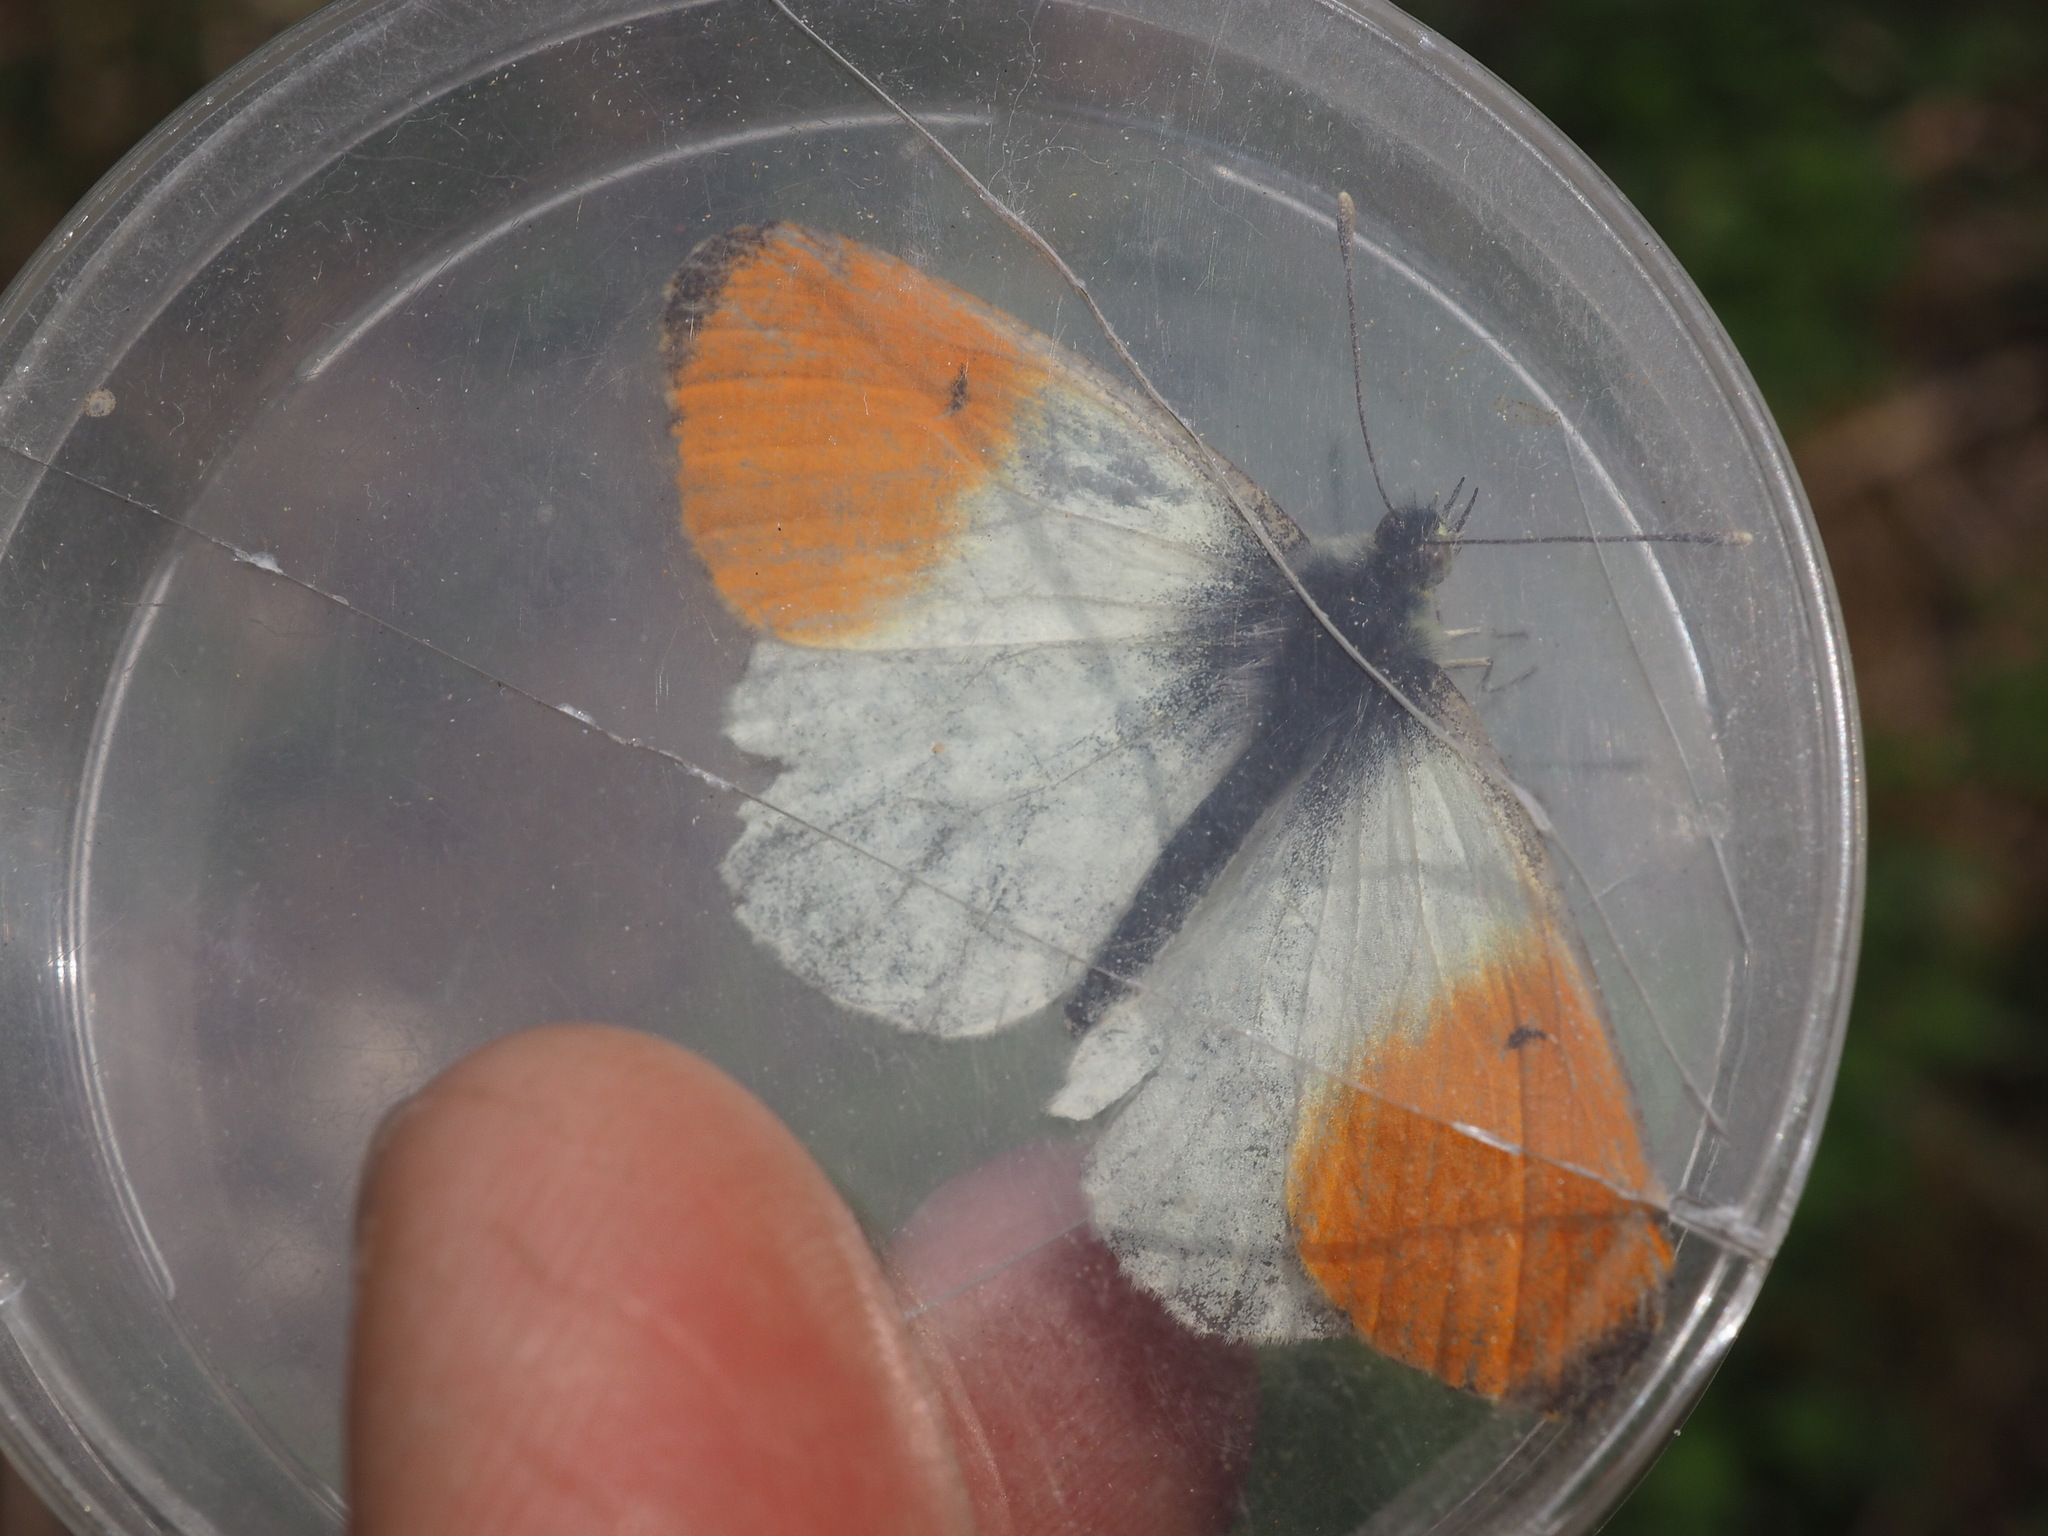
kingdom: Animalia
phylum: Arthropoda
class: Insecta
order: Lepidoptera
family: Pieridae
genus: Anthocharis
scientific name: Anthocharis cardamines
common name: Orange-tip
